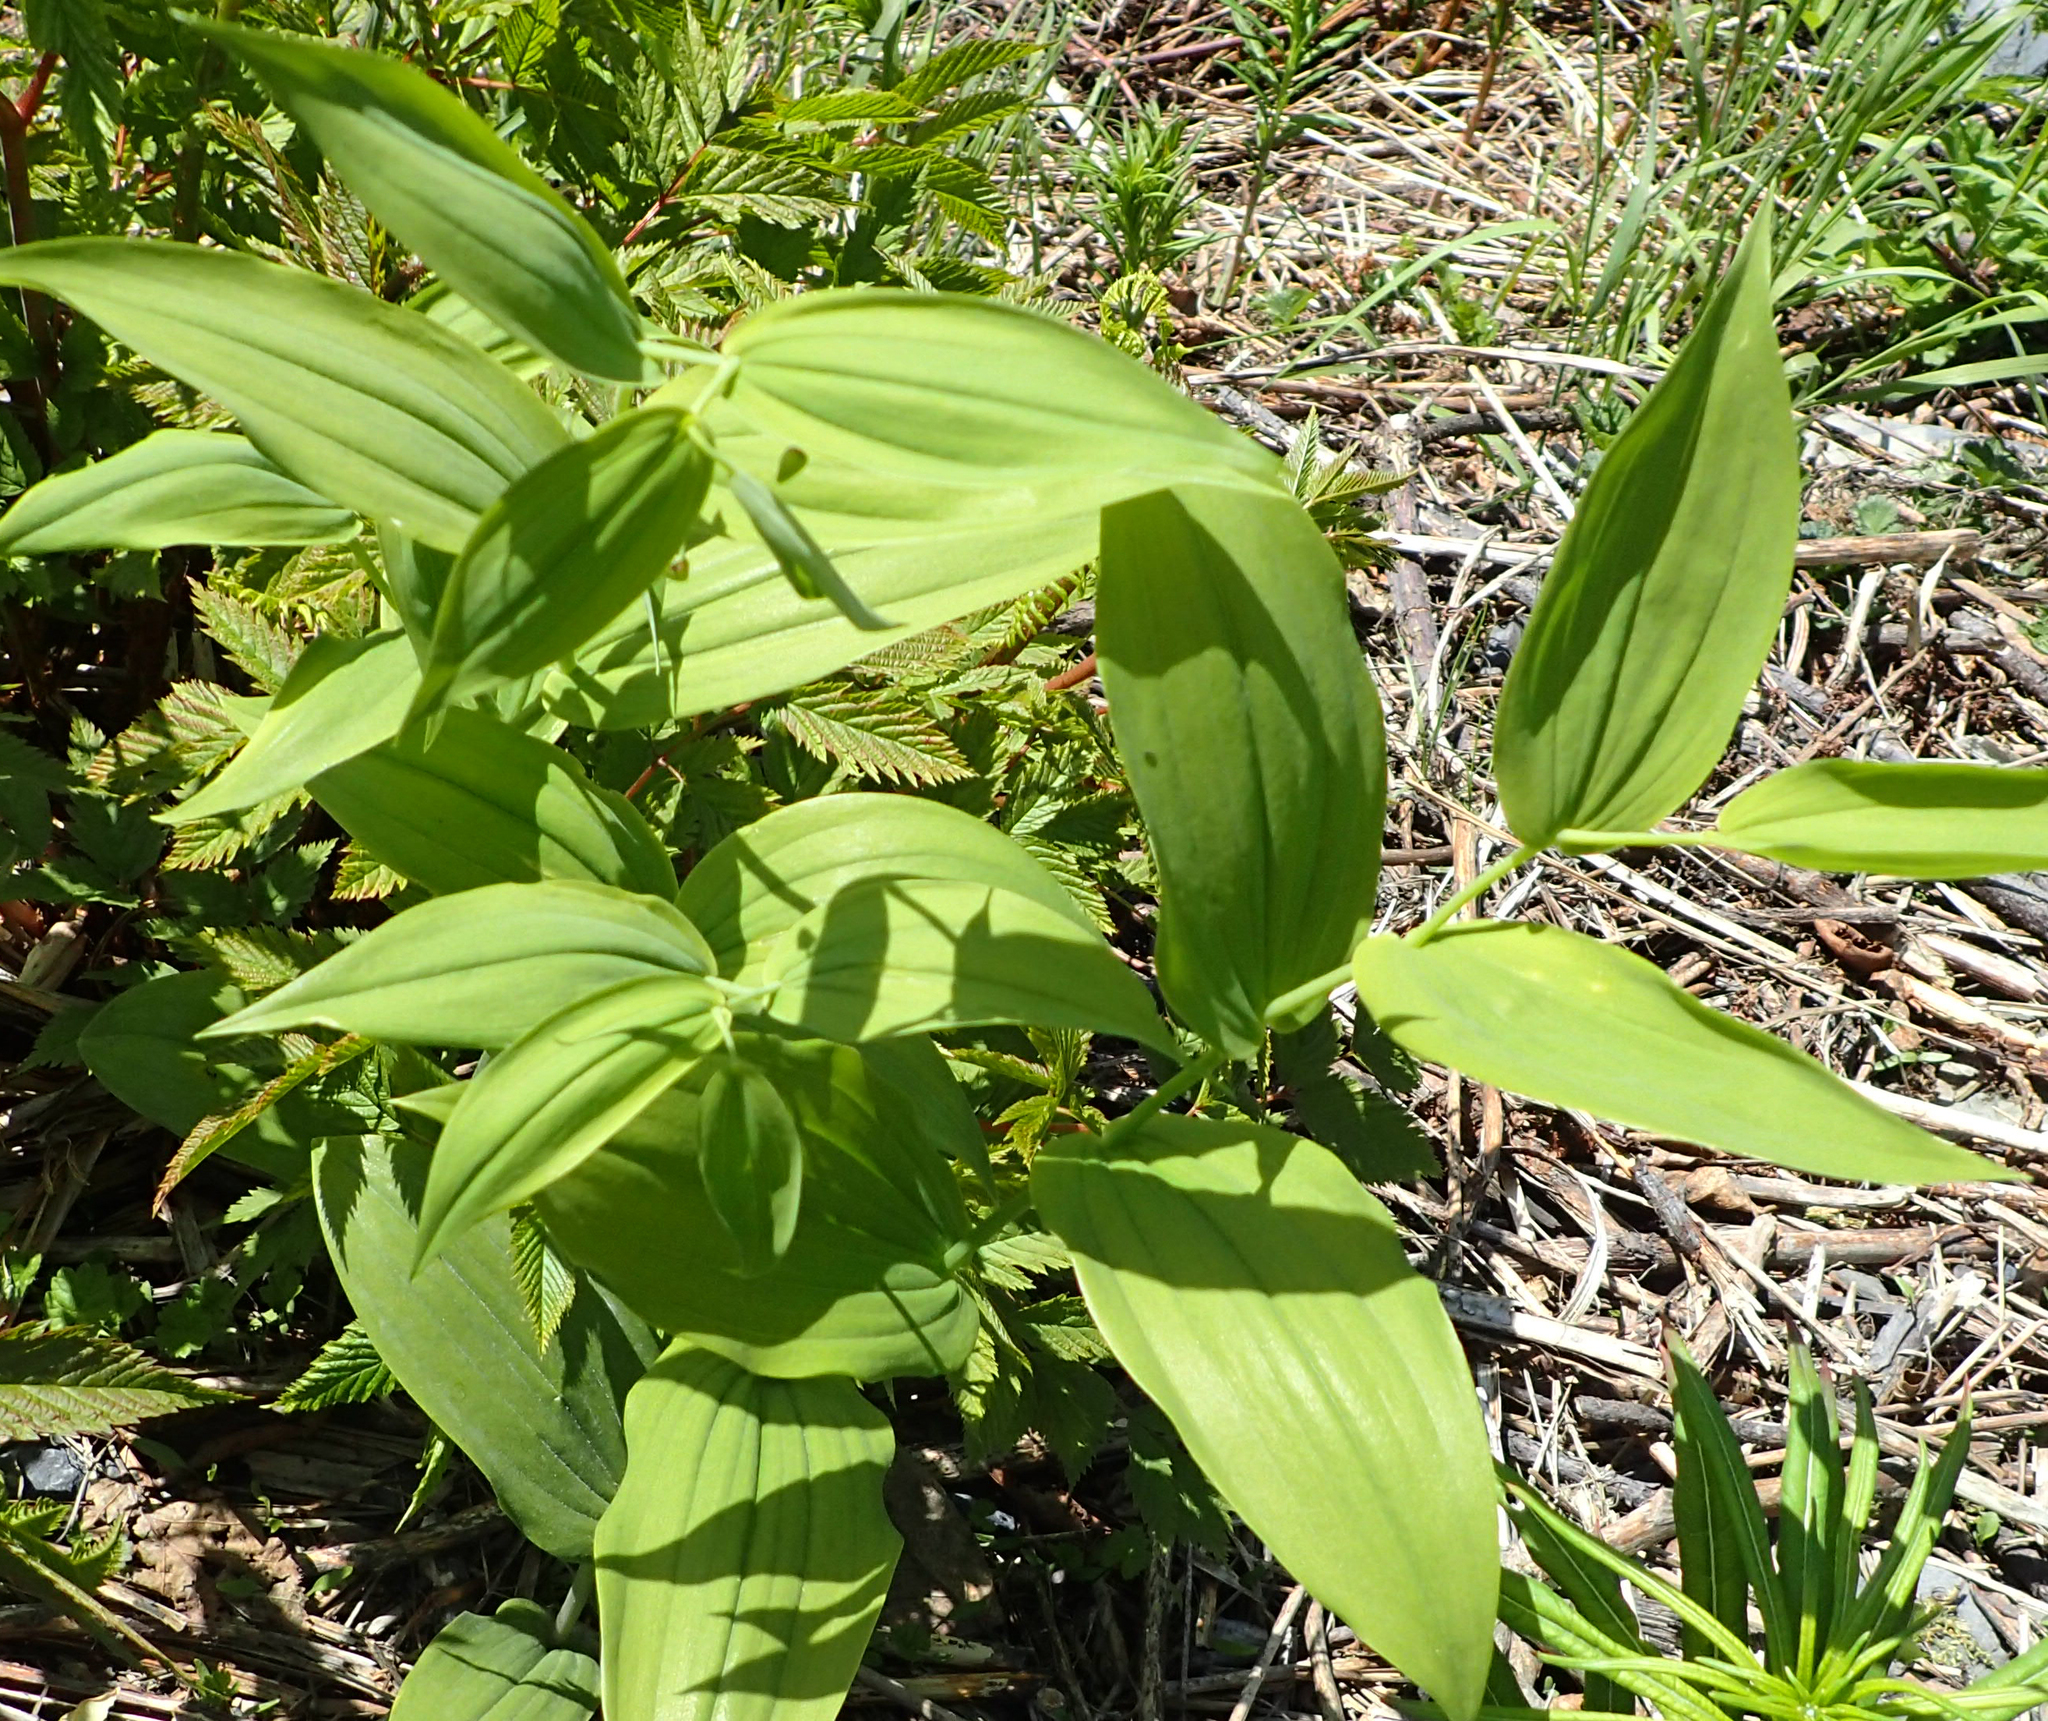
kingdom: Plantae
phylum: Tracheophyta
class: Liliopsida
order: Liliales
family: Liliaceae
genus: Streptopus
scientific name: Streptopus amplexifolius
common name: Clasp twisted stalk
